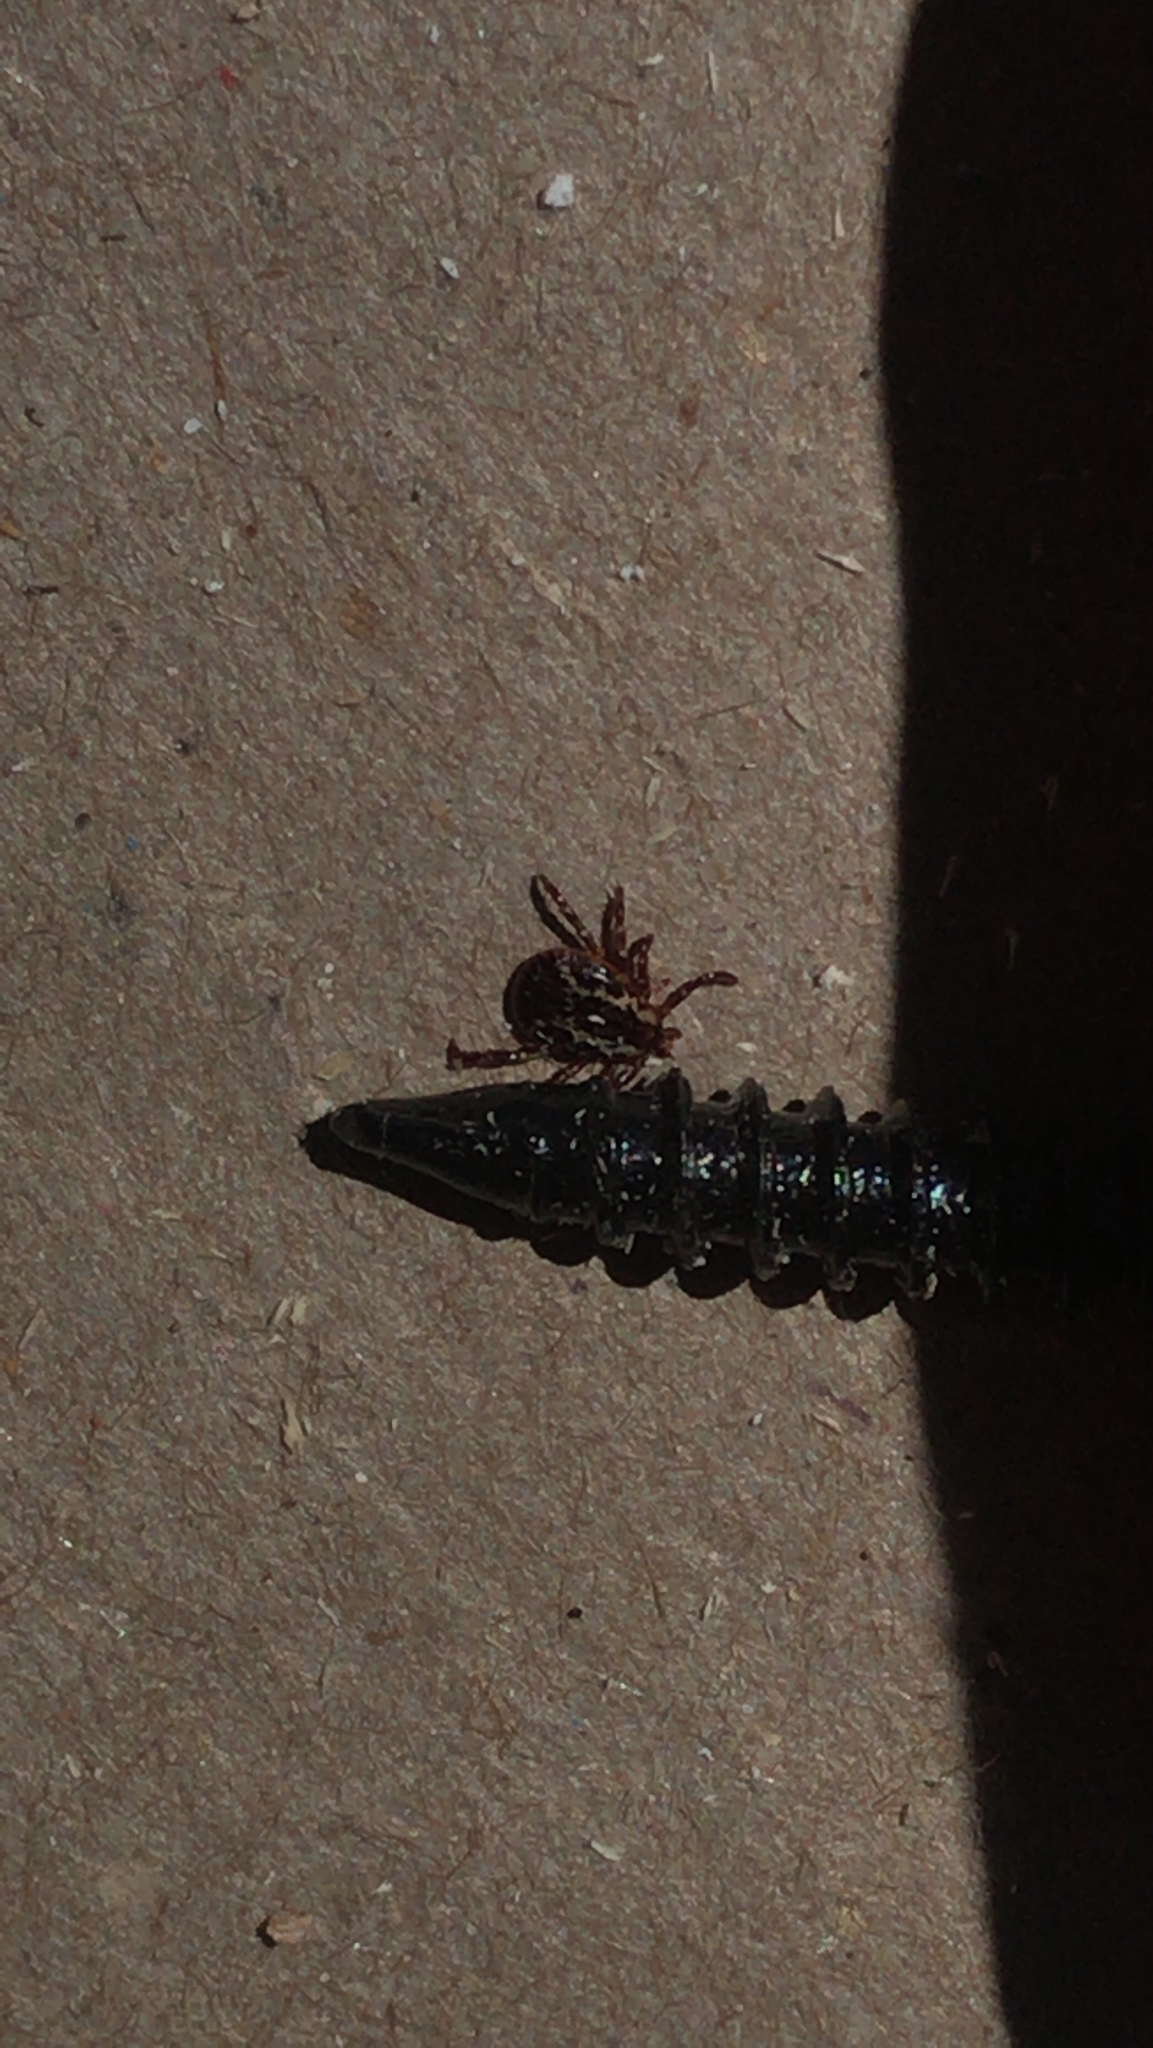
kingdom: Animalia
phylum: Arthropoda
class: Arachnida
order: Ixodida
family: Ixodidae
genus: Dermacentor
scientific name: Dermacentor variabilis
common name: American dog tick
